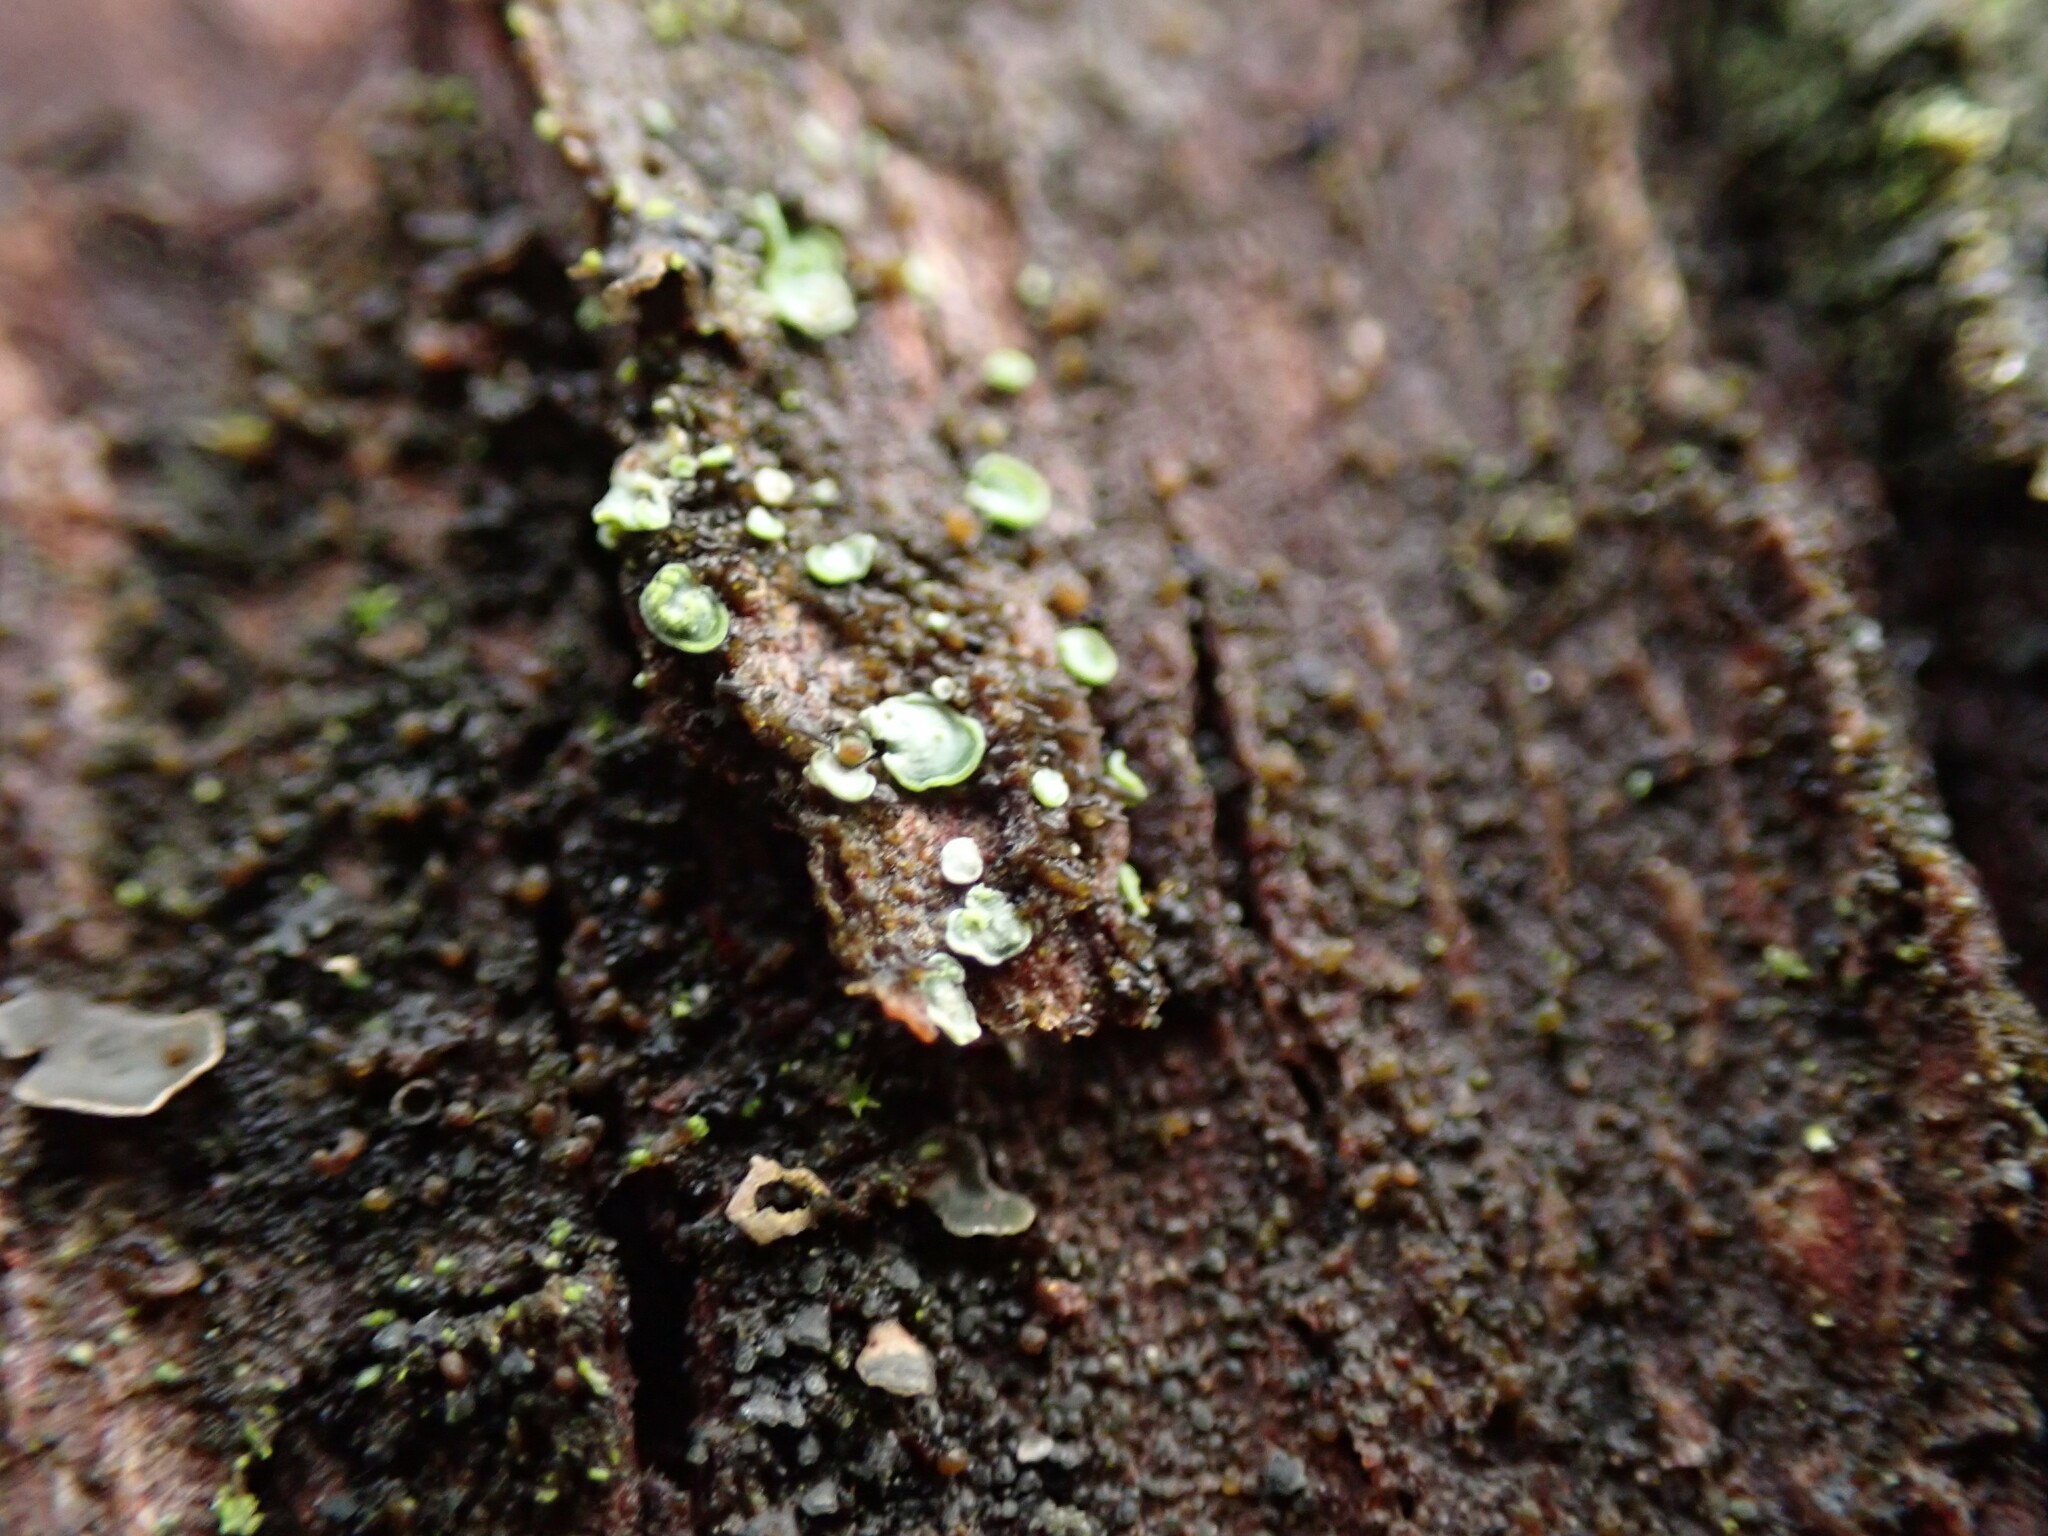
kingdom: Fungi
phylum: Ascomycota
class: Eurotiomycetes
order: Verrucariales
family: Verrucariaceae
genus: Normandina
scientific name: Normandina pulchella
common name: Elf ears lichen
